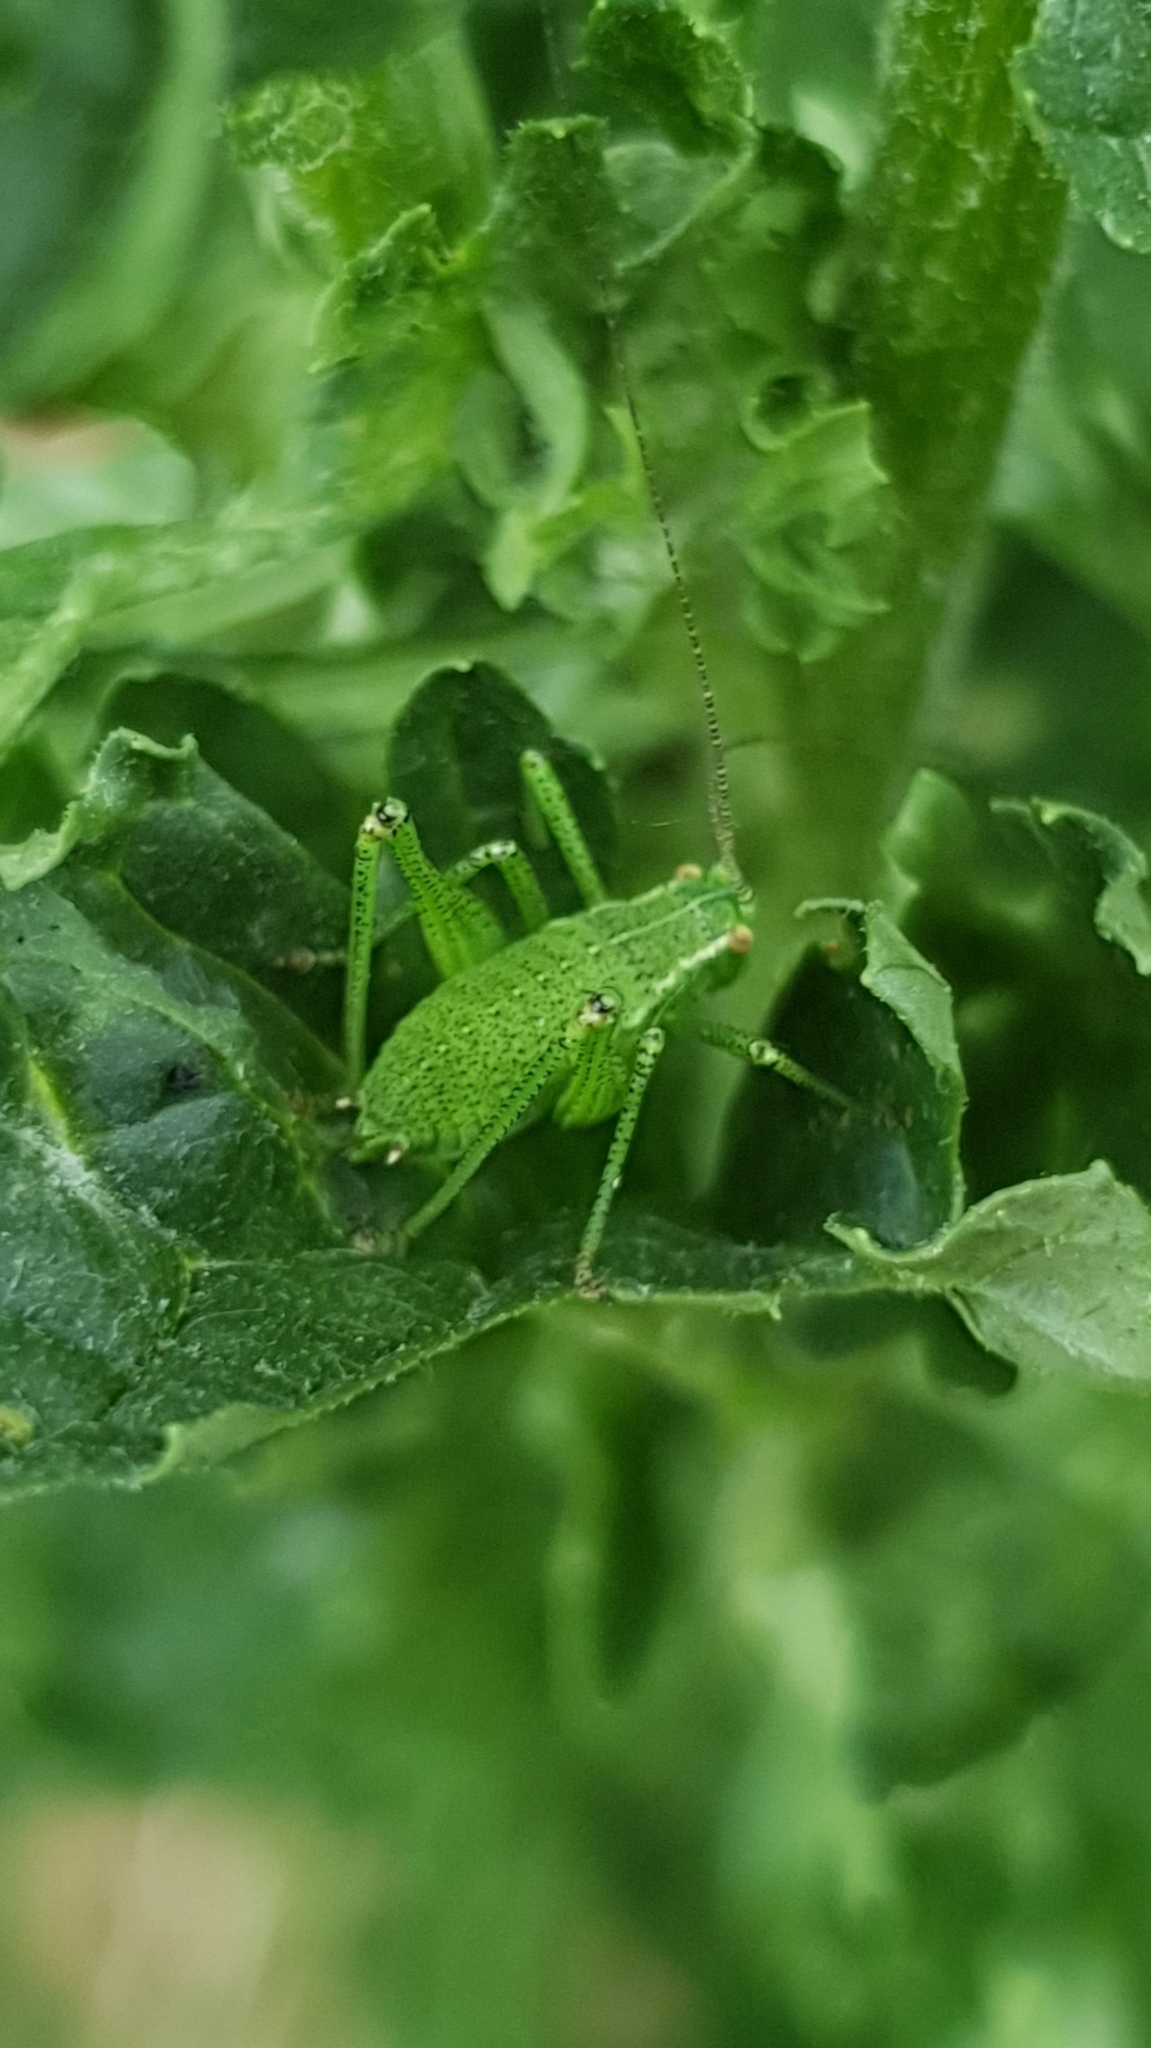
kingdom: Animalia
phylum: Arthropoda
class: Insecta
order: Orthoptera
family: Tettigoniidae
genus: Leptophyes
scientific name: Leptophyes punctatissima
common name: Speckled bush-cricket
